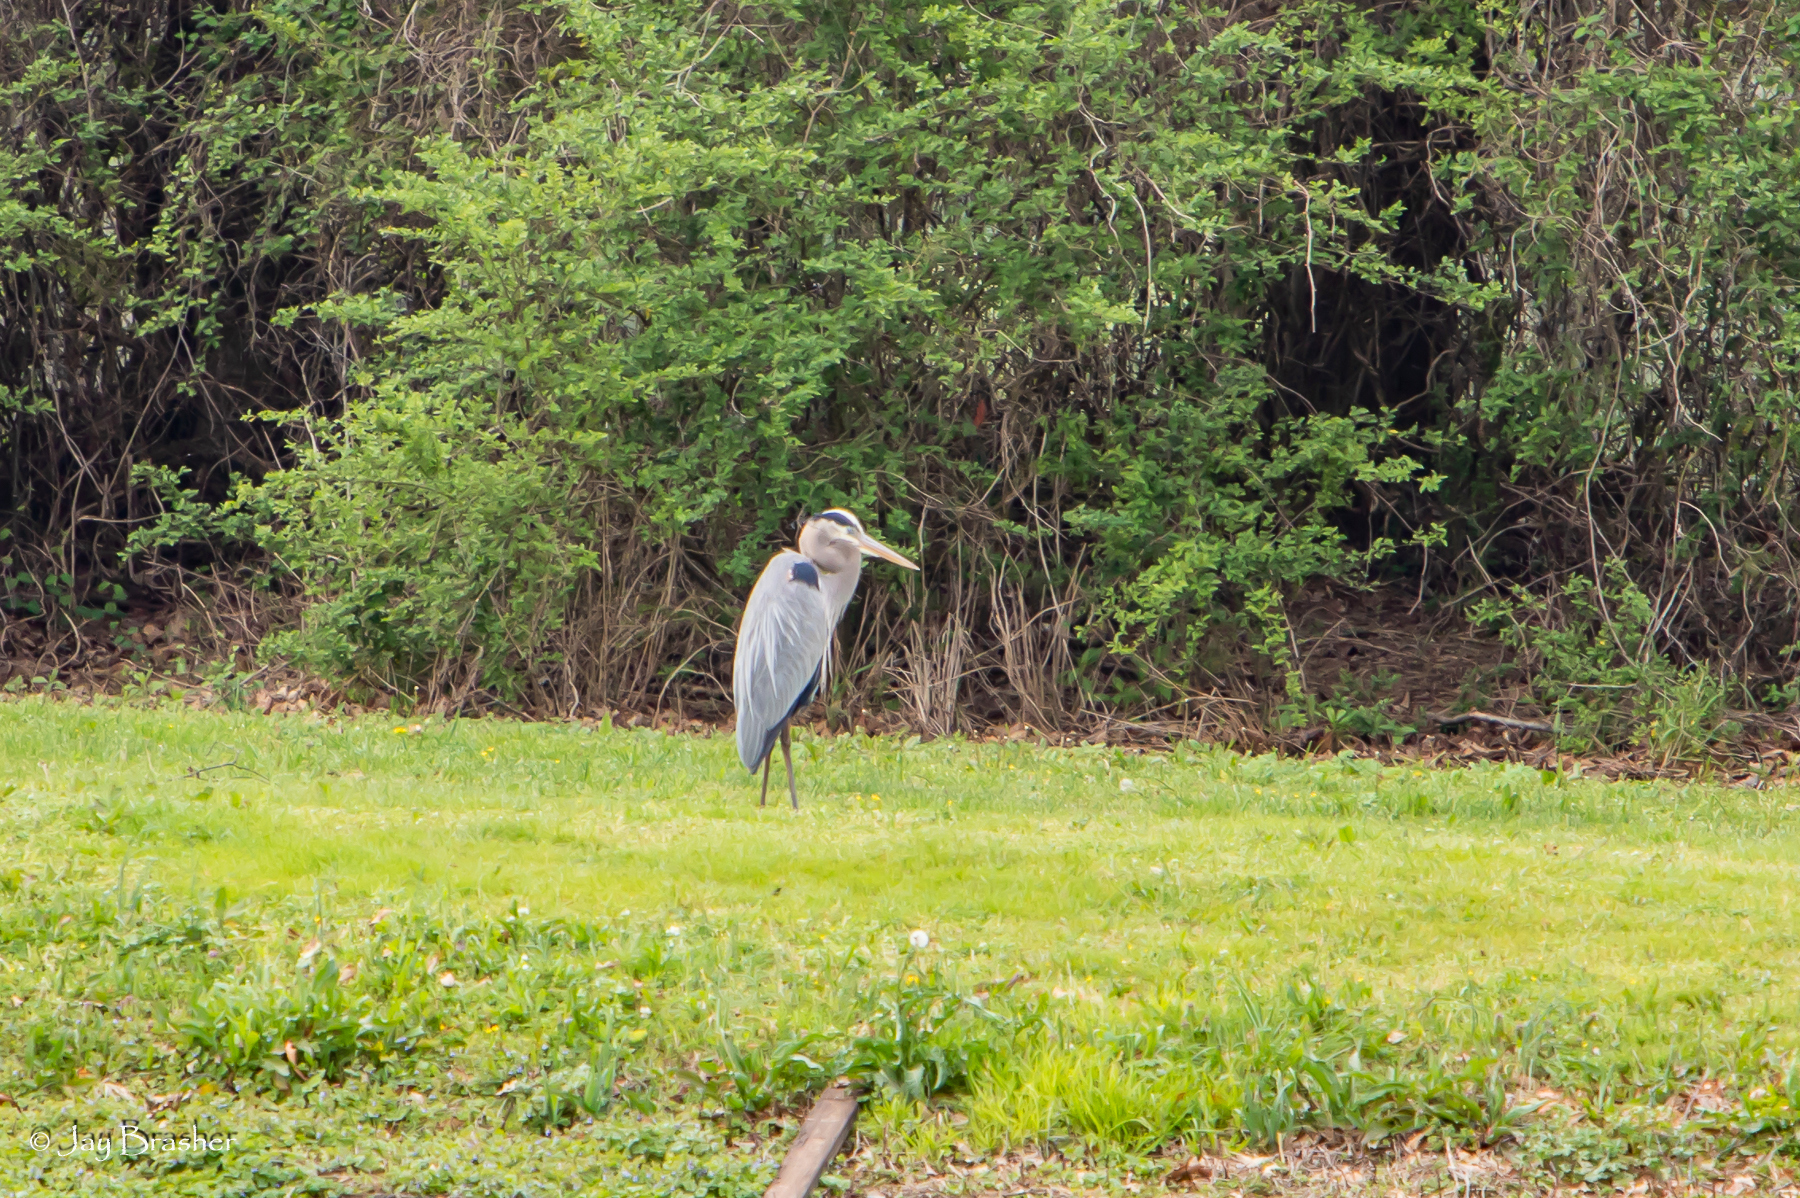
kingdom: Animalia
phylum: Chordata
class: Aves
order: Pelecaniformes
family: Ardeidae
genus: Ardea
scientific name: Ardea herodias
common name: Great blue heron
